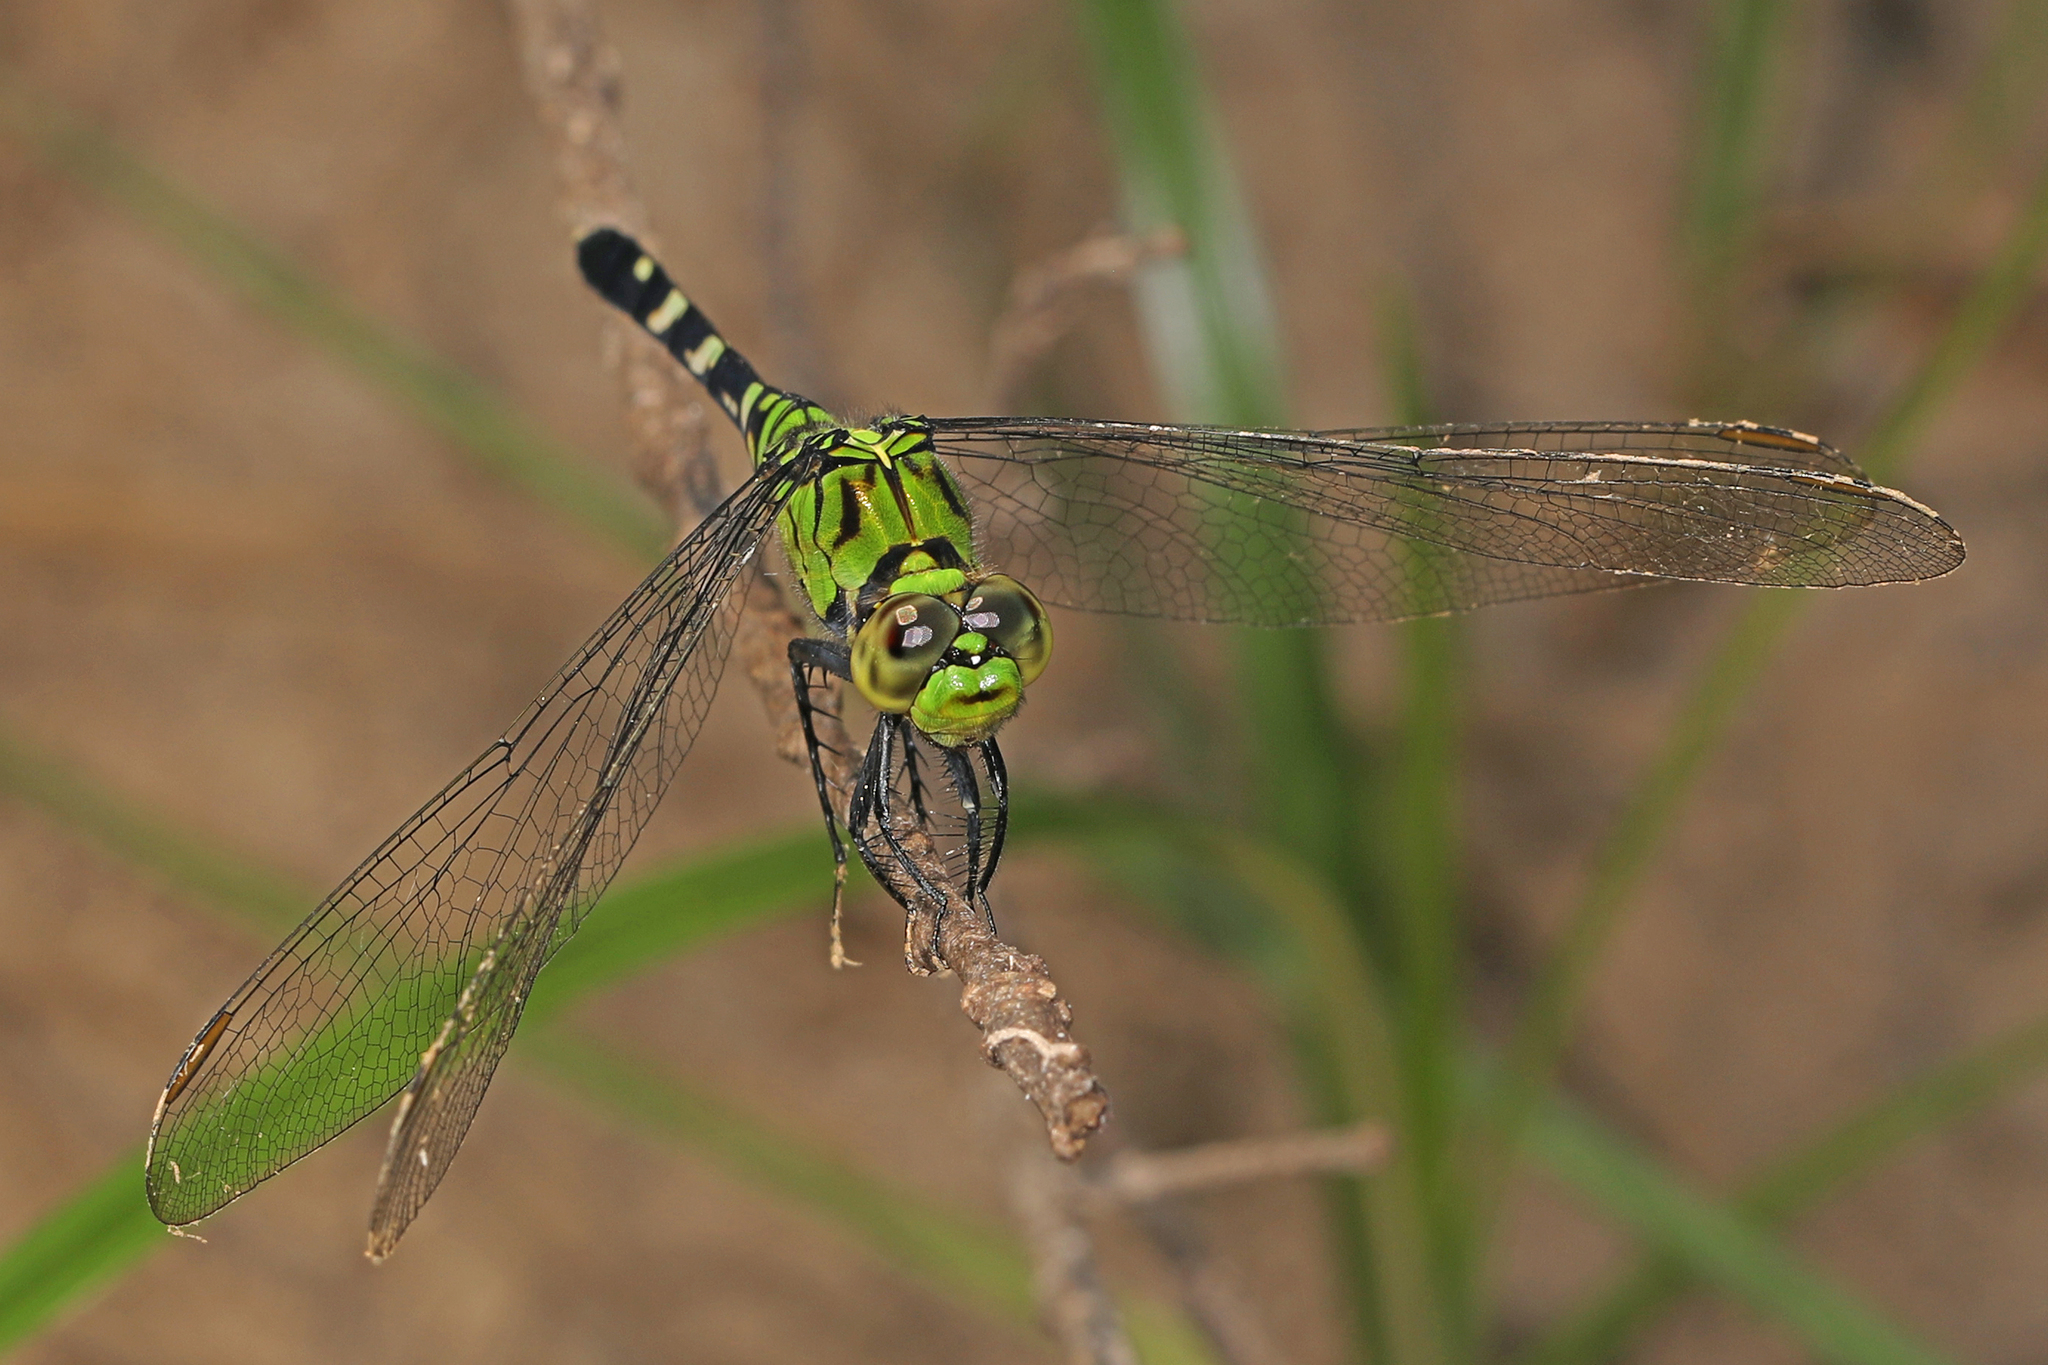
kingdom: Animalia
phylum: Arthropoda
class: Insecta
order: Odonata
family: Libellulidae
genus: Erythemis
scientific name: Erythemis simplicicollis
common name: Eastern pondhawk
